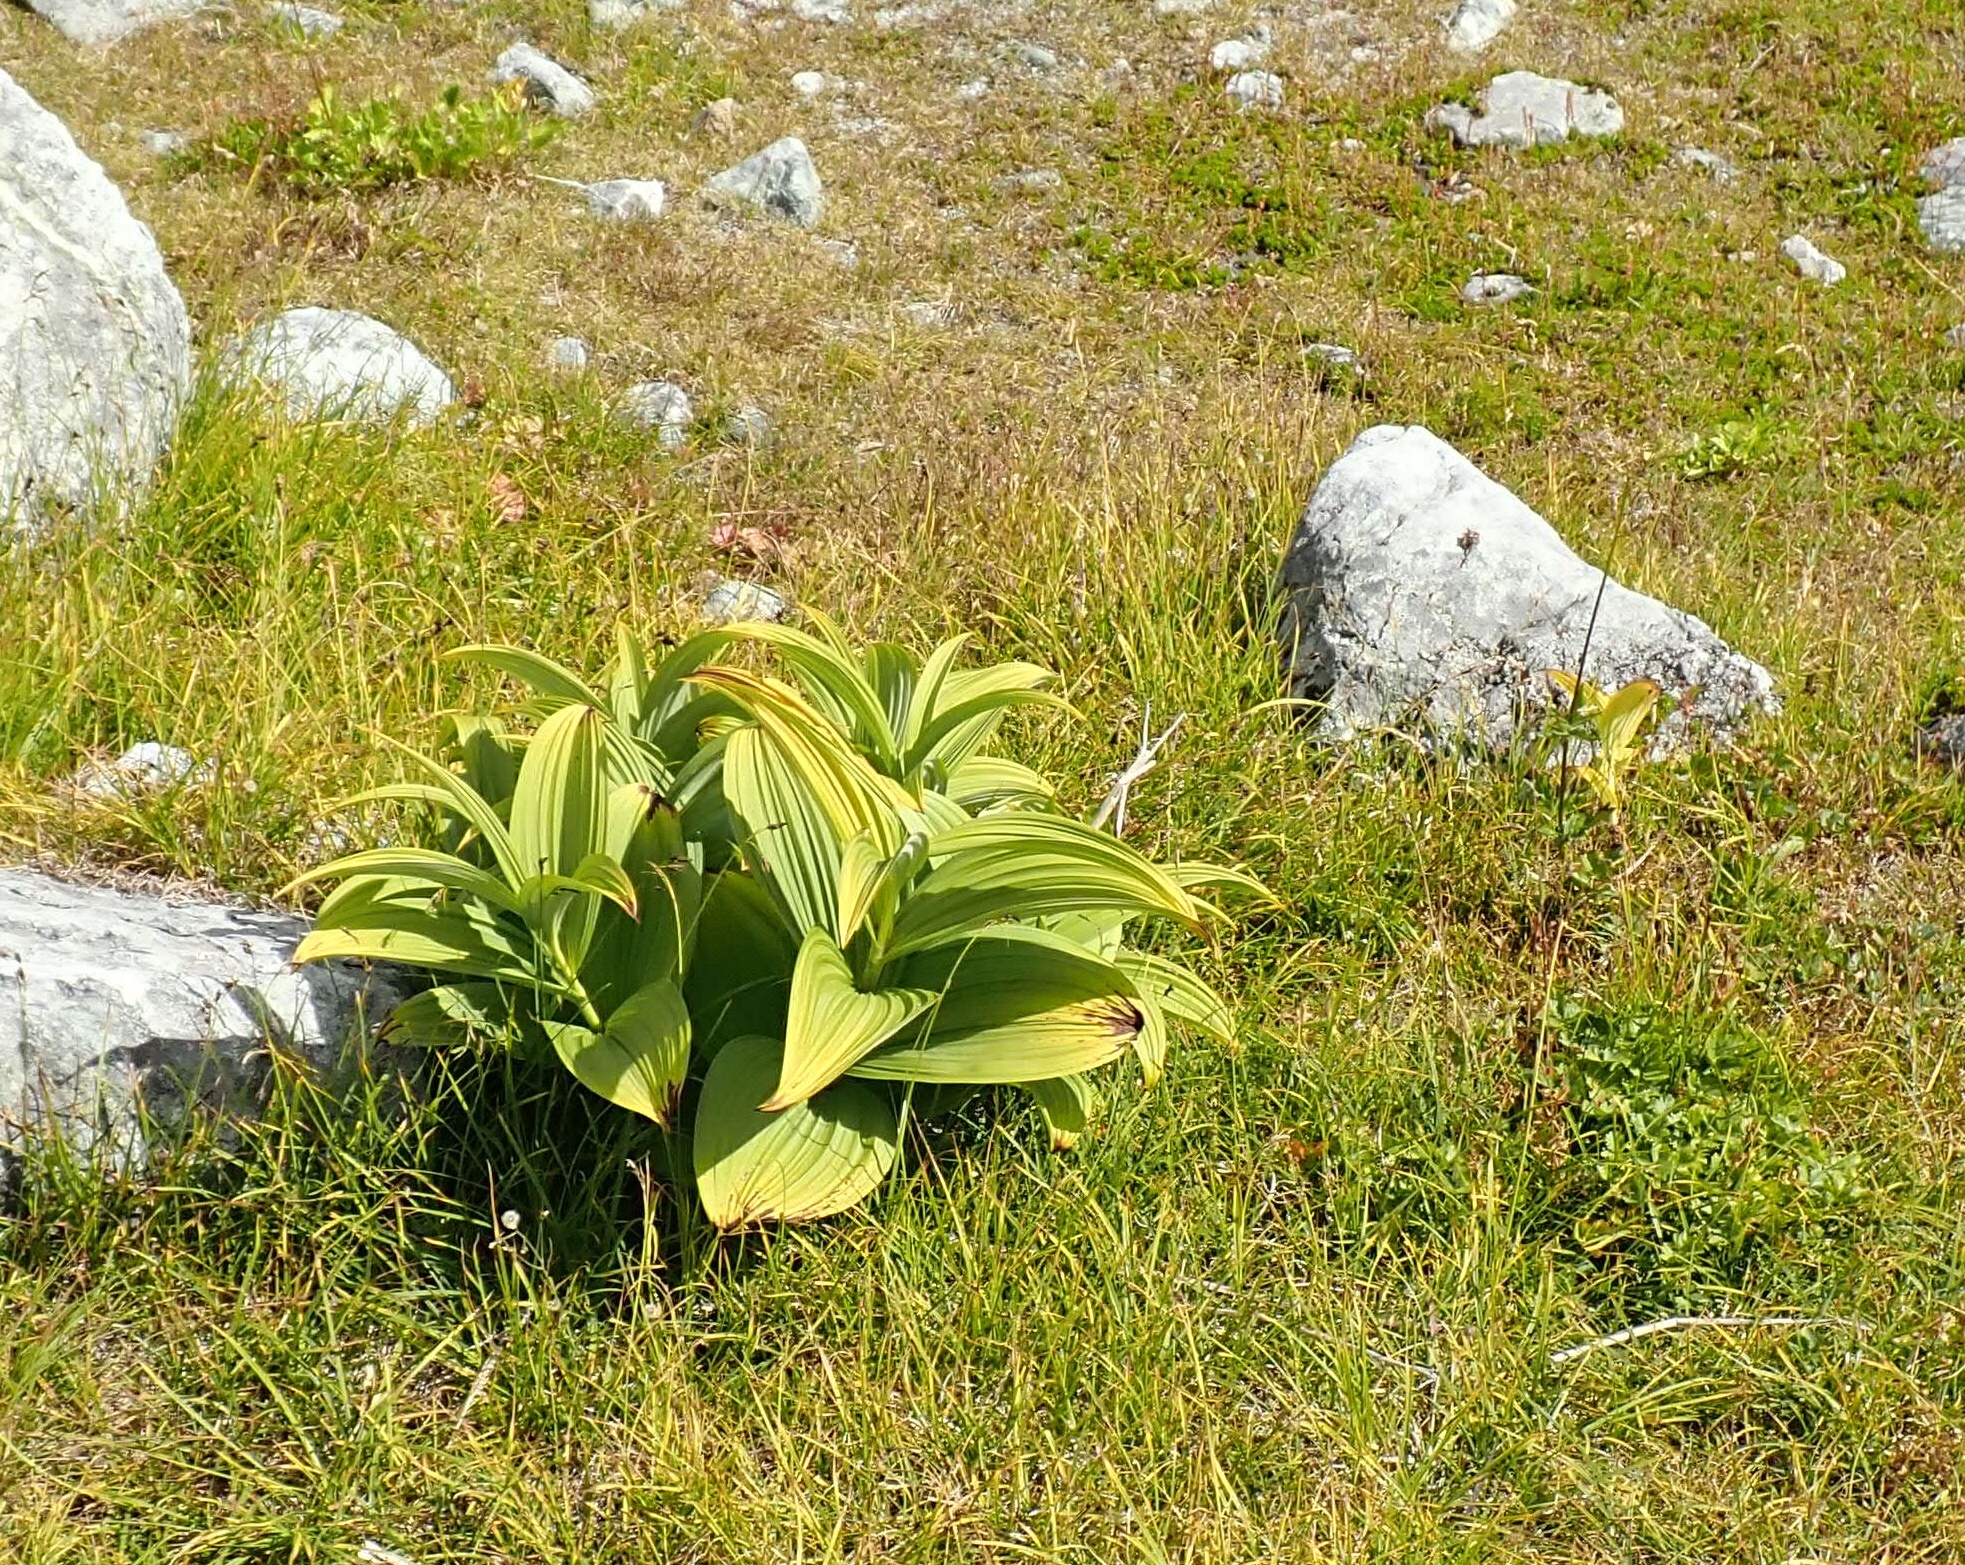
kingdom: Plantae
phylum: Tracheophyta
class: Liliopsida
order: Liliales
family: Melanthiaceae
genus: Veratrum
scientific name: Veratrum viride
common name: American false hellebore
